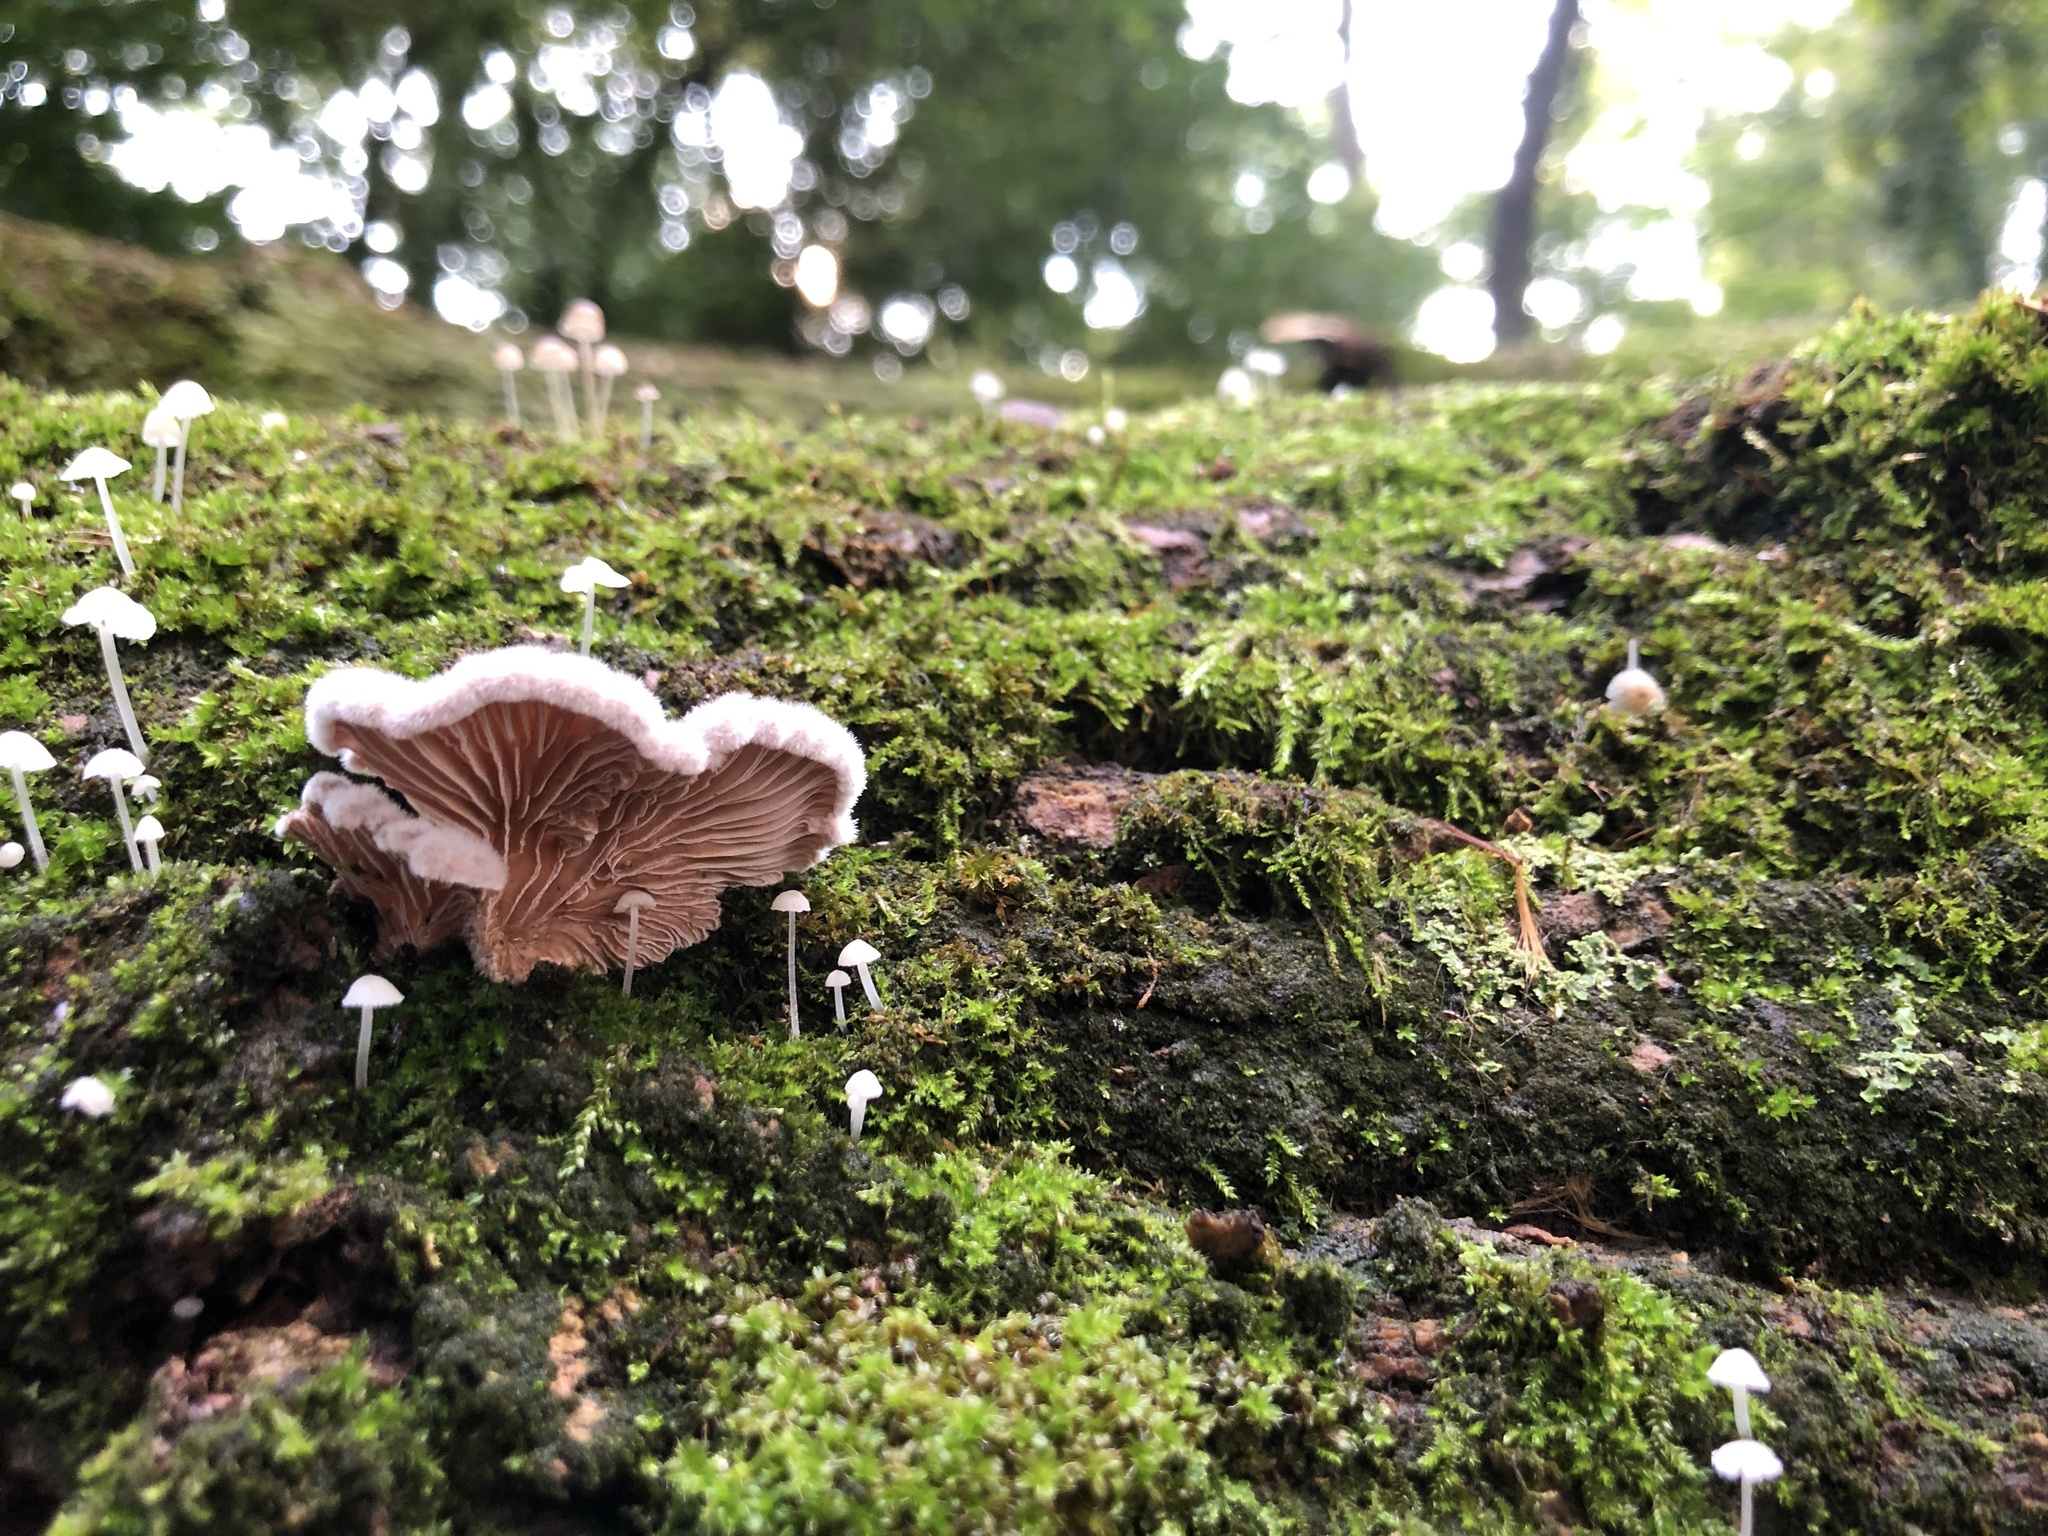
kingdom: Fungi
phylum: Basidiomycota
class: Agaricomycetes
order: Agaricales
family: Schizophyllaceae
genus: Schizophyllum
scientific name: Schizophyllum commune
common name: Common porecrust
